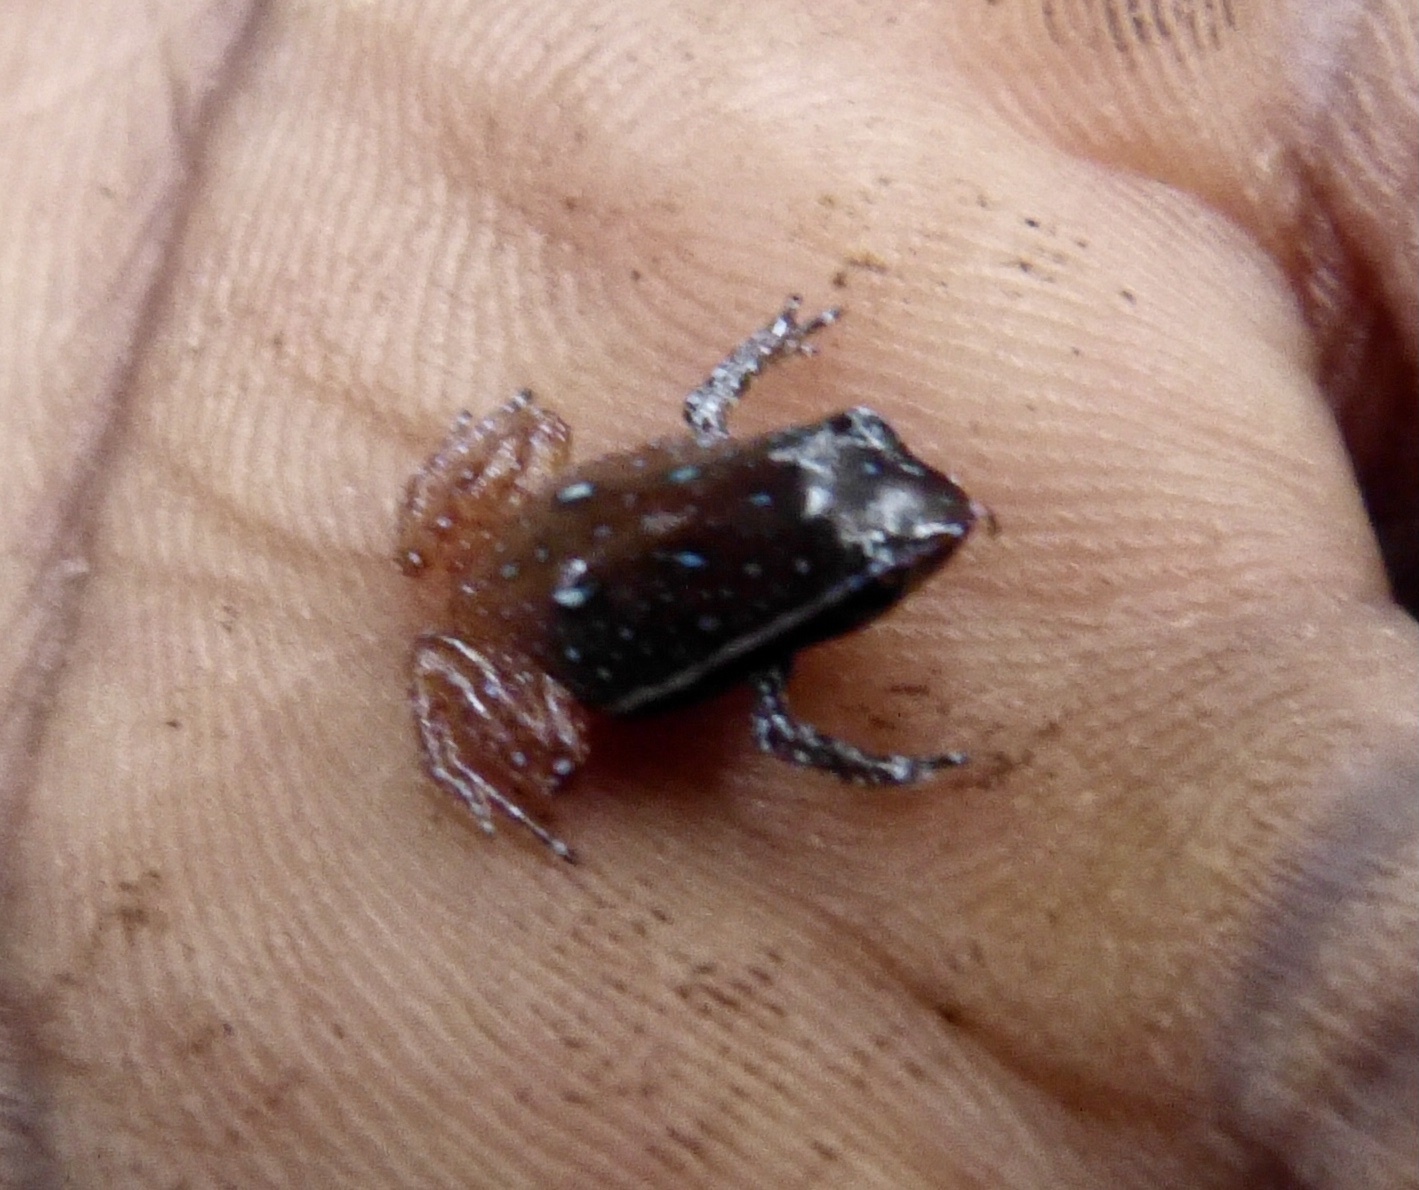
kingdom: Animalia
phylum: Chordata
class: Amphibia
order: Anura
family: Microhylidae
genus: Plethodontohyla
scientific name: Plethodontohyla notosticta
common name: Mahanoro digging frog
